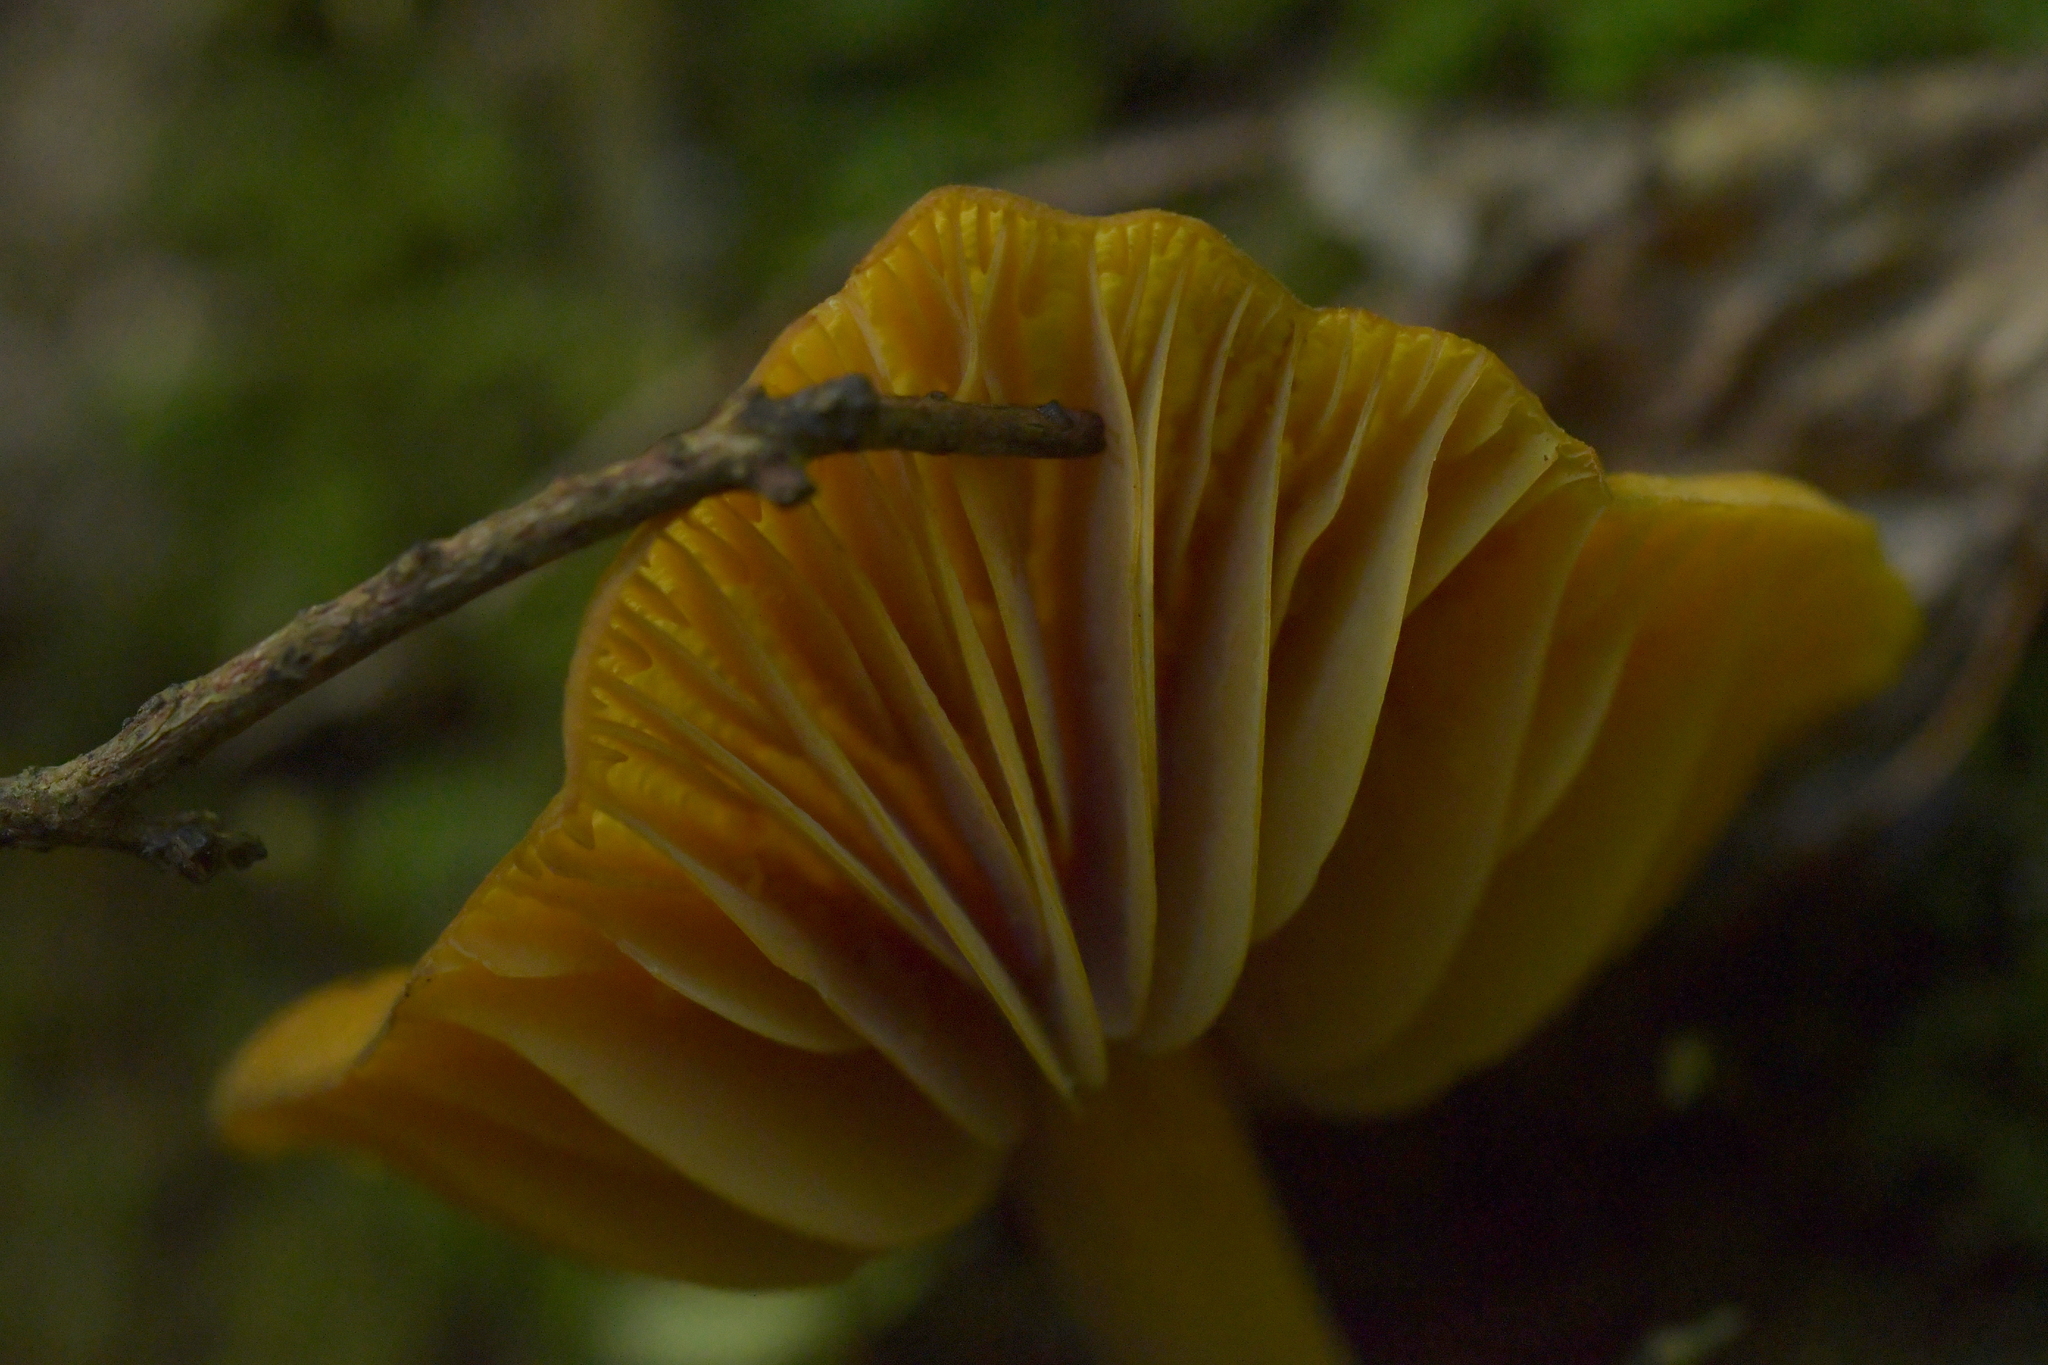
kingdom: Fungi
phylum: Basidiomycota
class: Agaricomycetes
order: Agaricales
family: Mycenaceae
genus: Heimiomyces
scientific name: Heimiomyces velutipes
